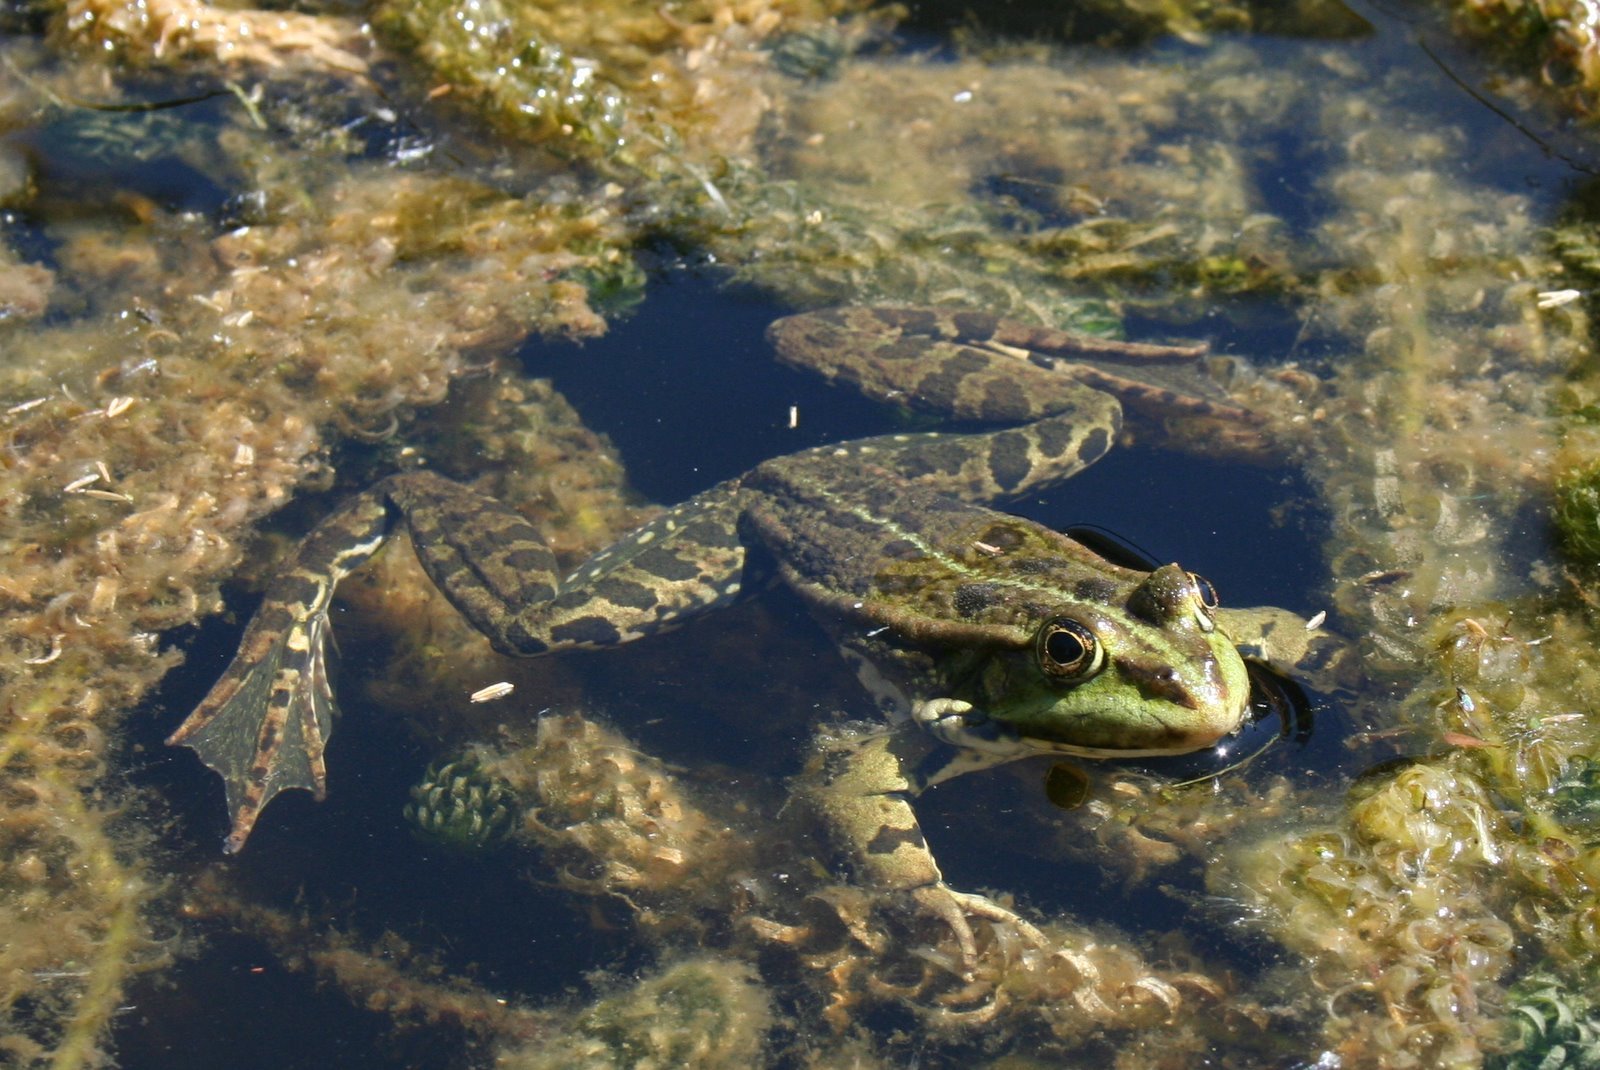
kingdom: Animalia
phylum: Chordata
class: Amphibia
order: Anura
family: Ranidae
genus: Pelophylax
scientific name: Pelophylax ridibundus
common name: Marsh frog
